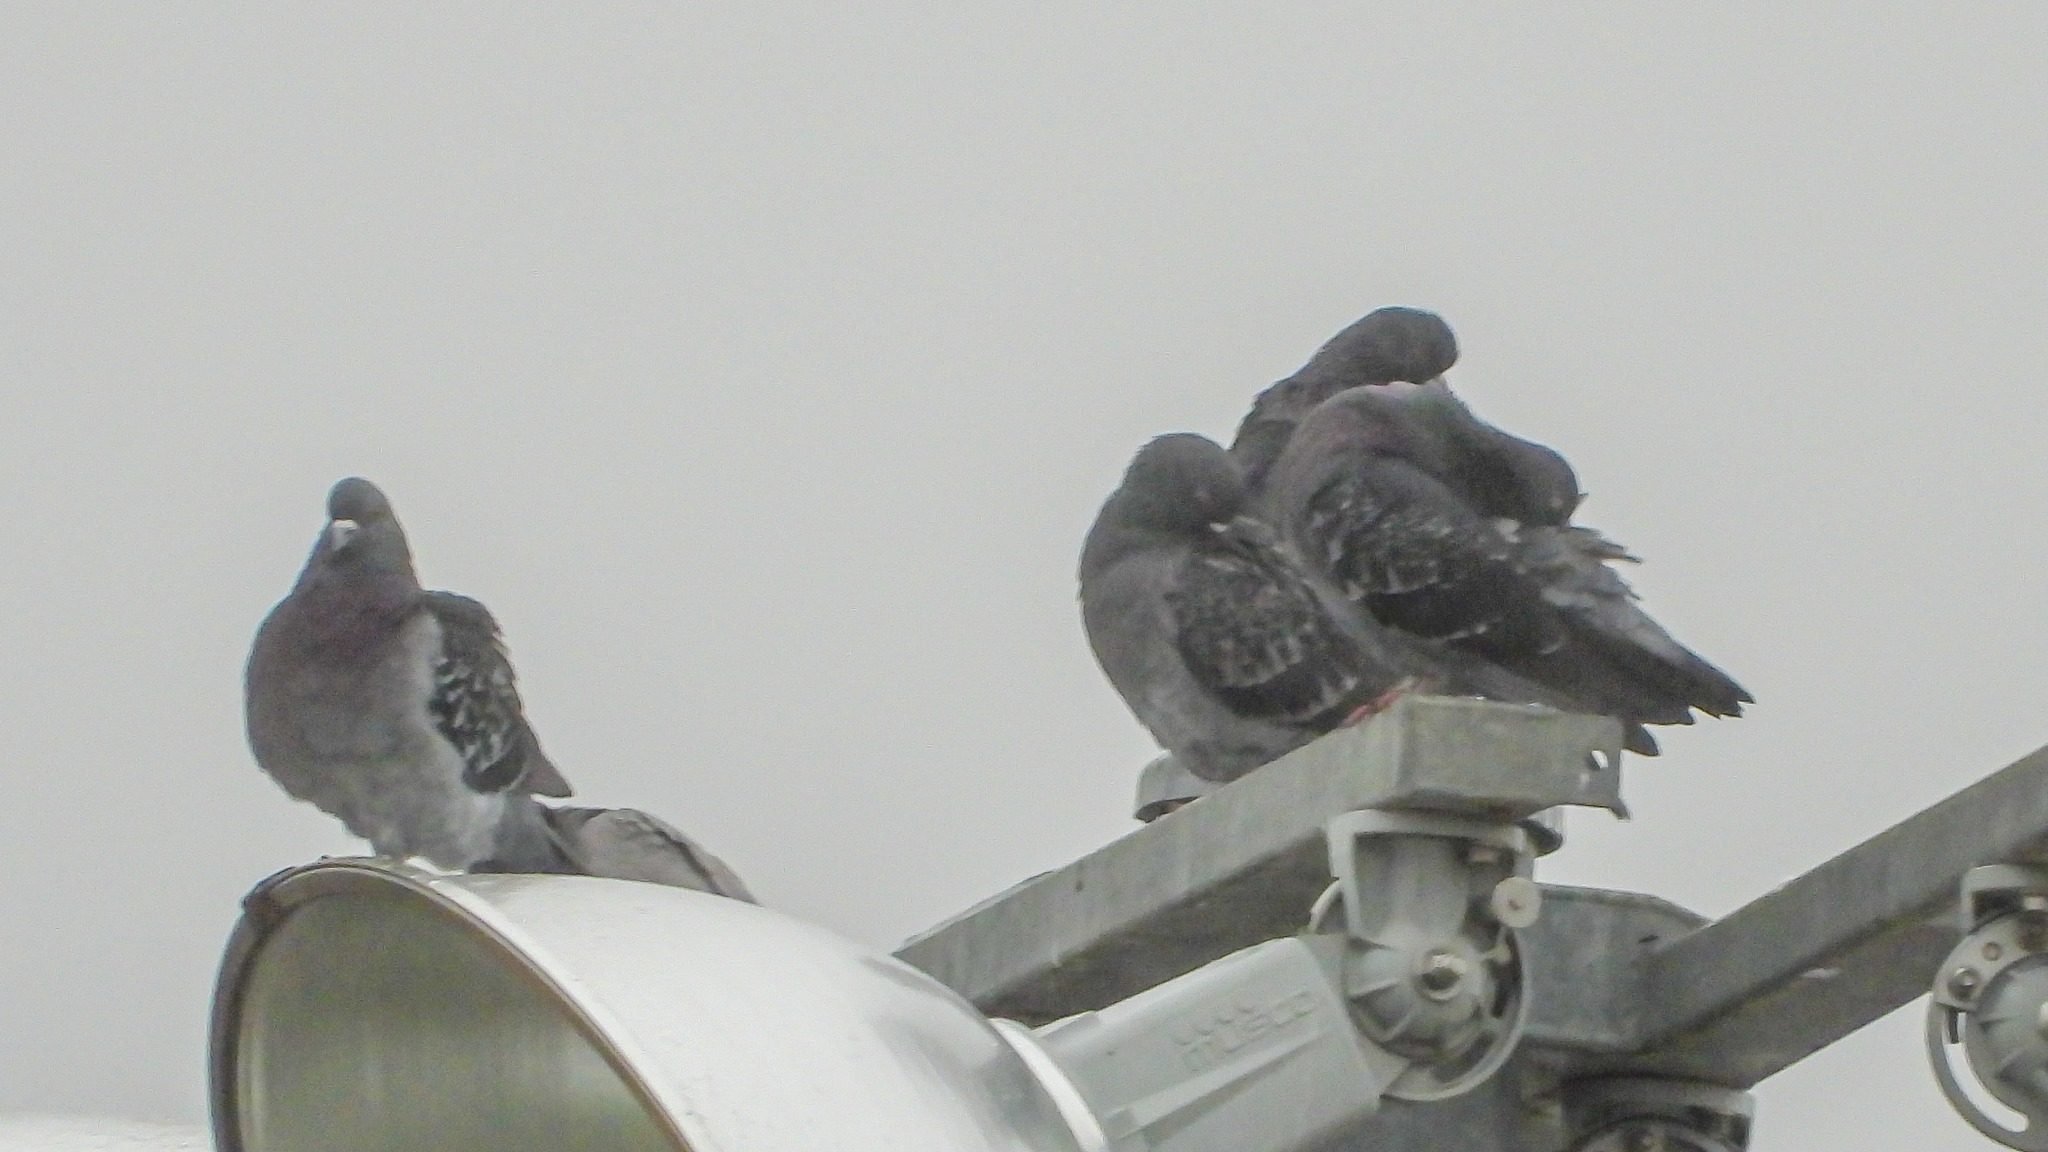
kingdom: Animalia
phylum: Chordata
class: Aves
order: Columbiformes
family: Columbidae
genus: Columba
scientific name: Columba livia
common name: Rock pigeon
